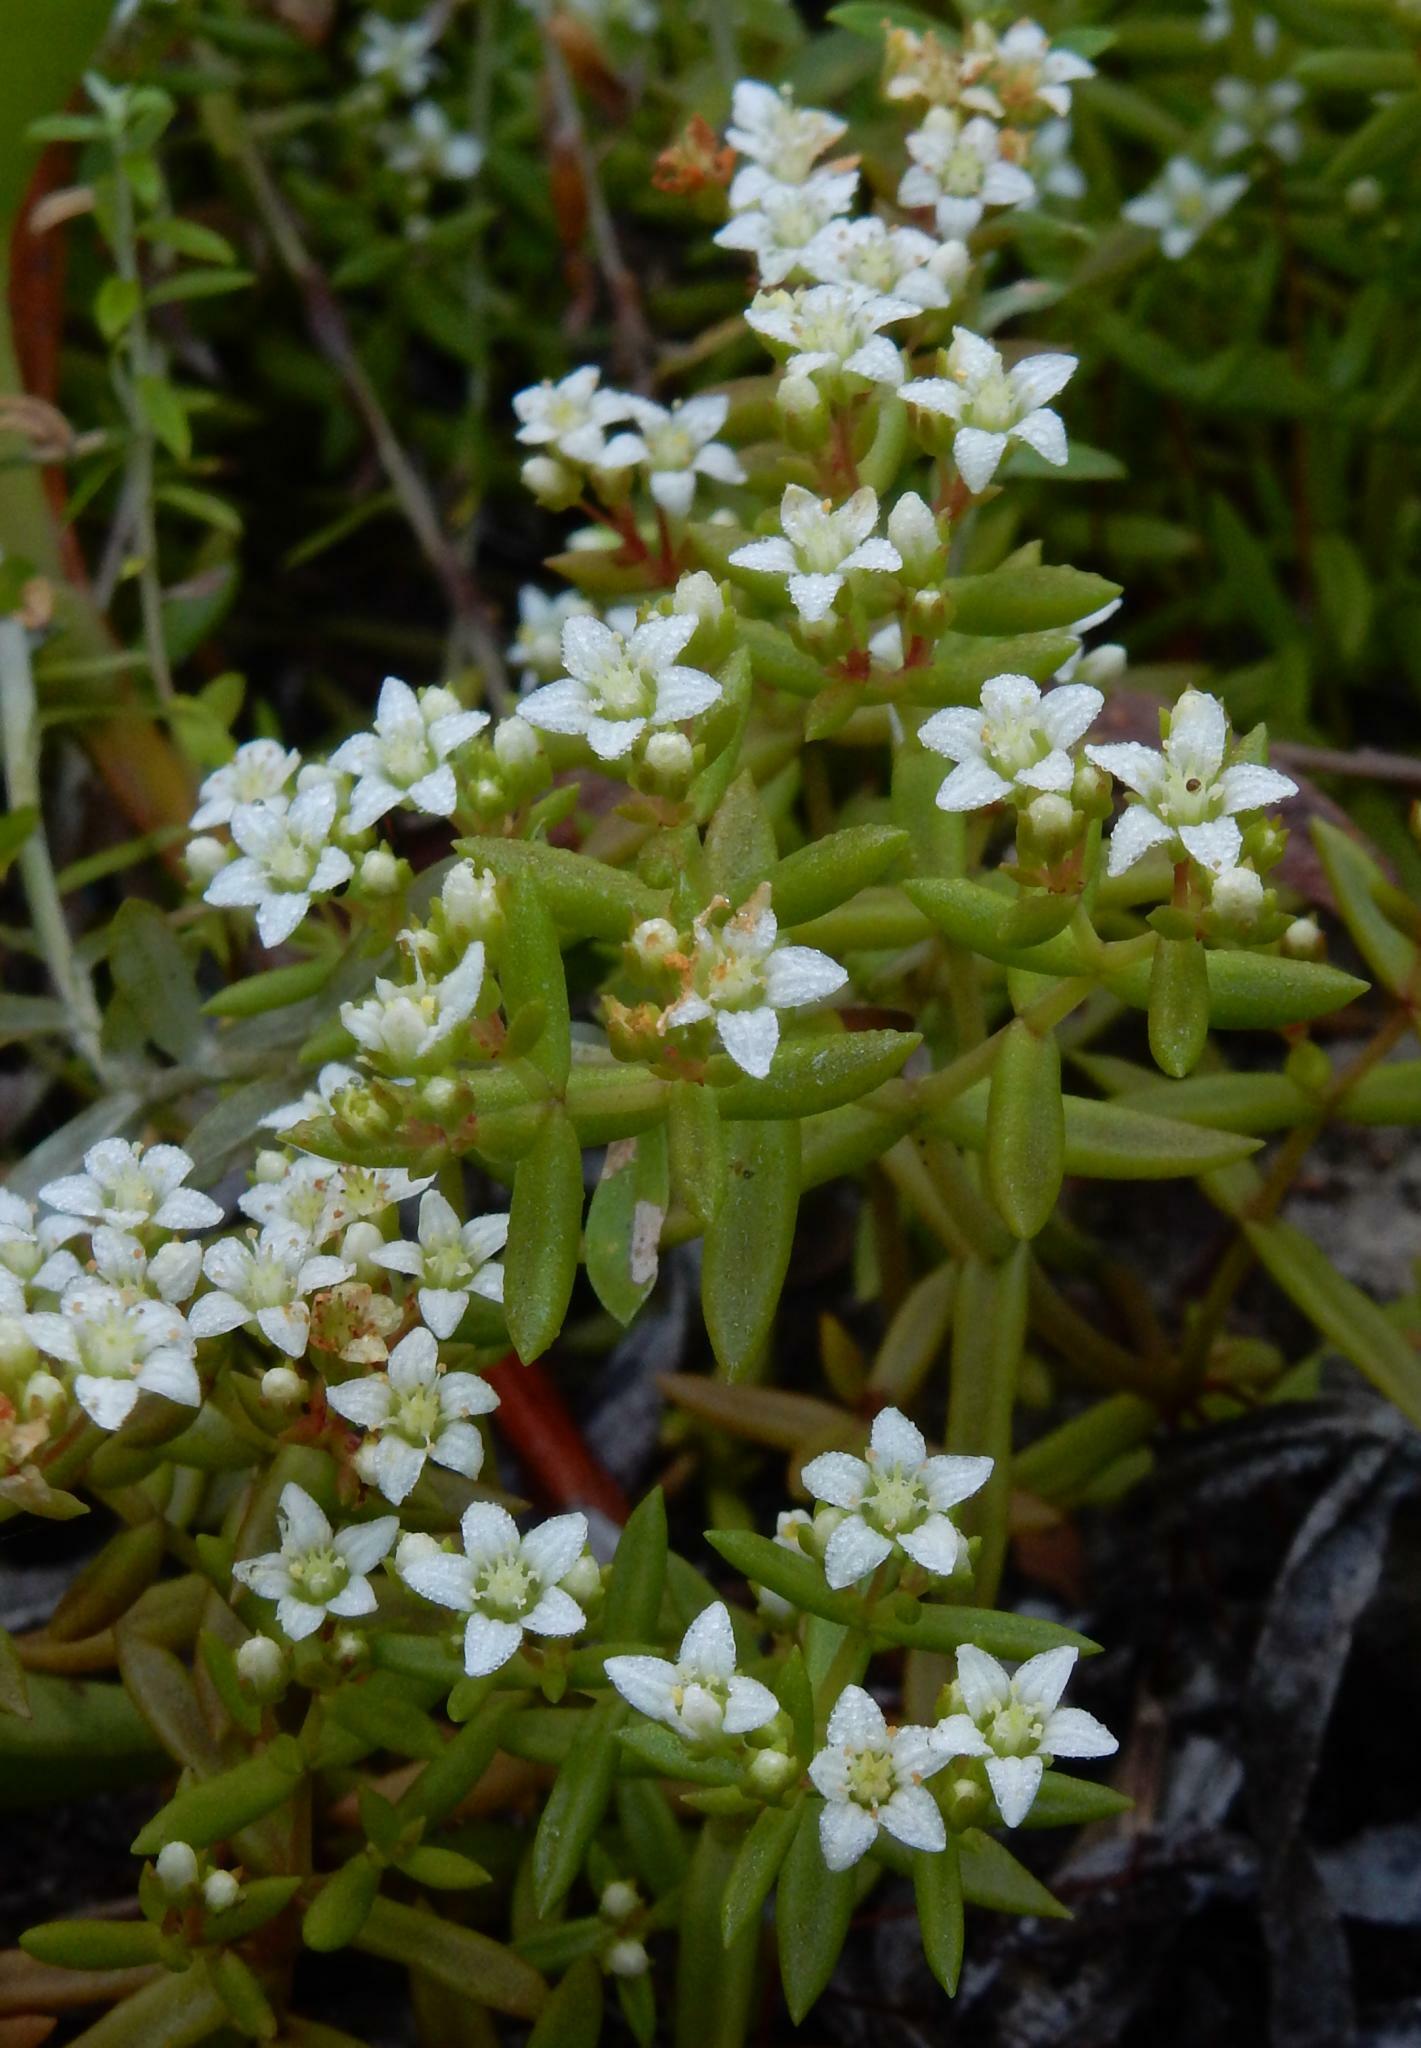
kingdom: Plantae
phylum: Tracheophyta
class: Magnoliopsida
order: Saxifragales
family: Crassulaceae
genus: Crassula
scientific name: Crassula expansa
